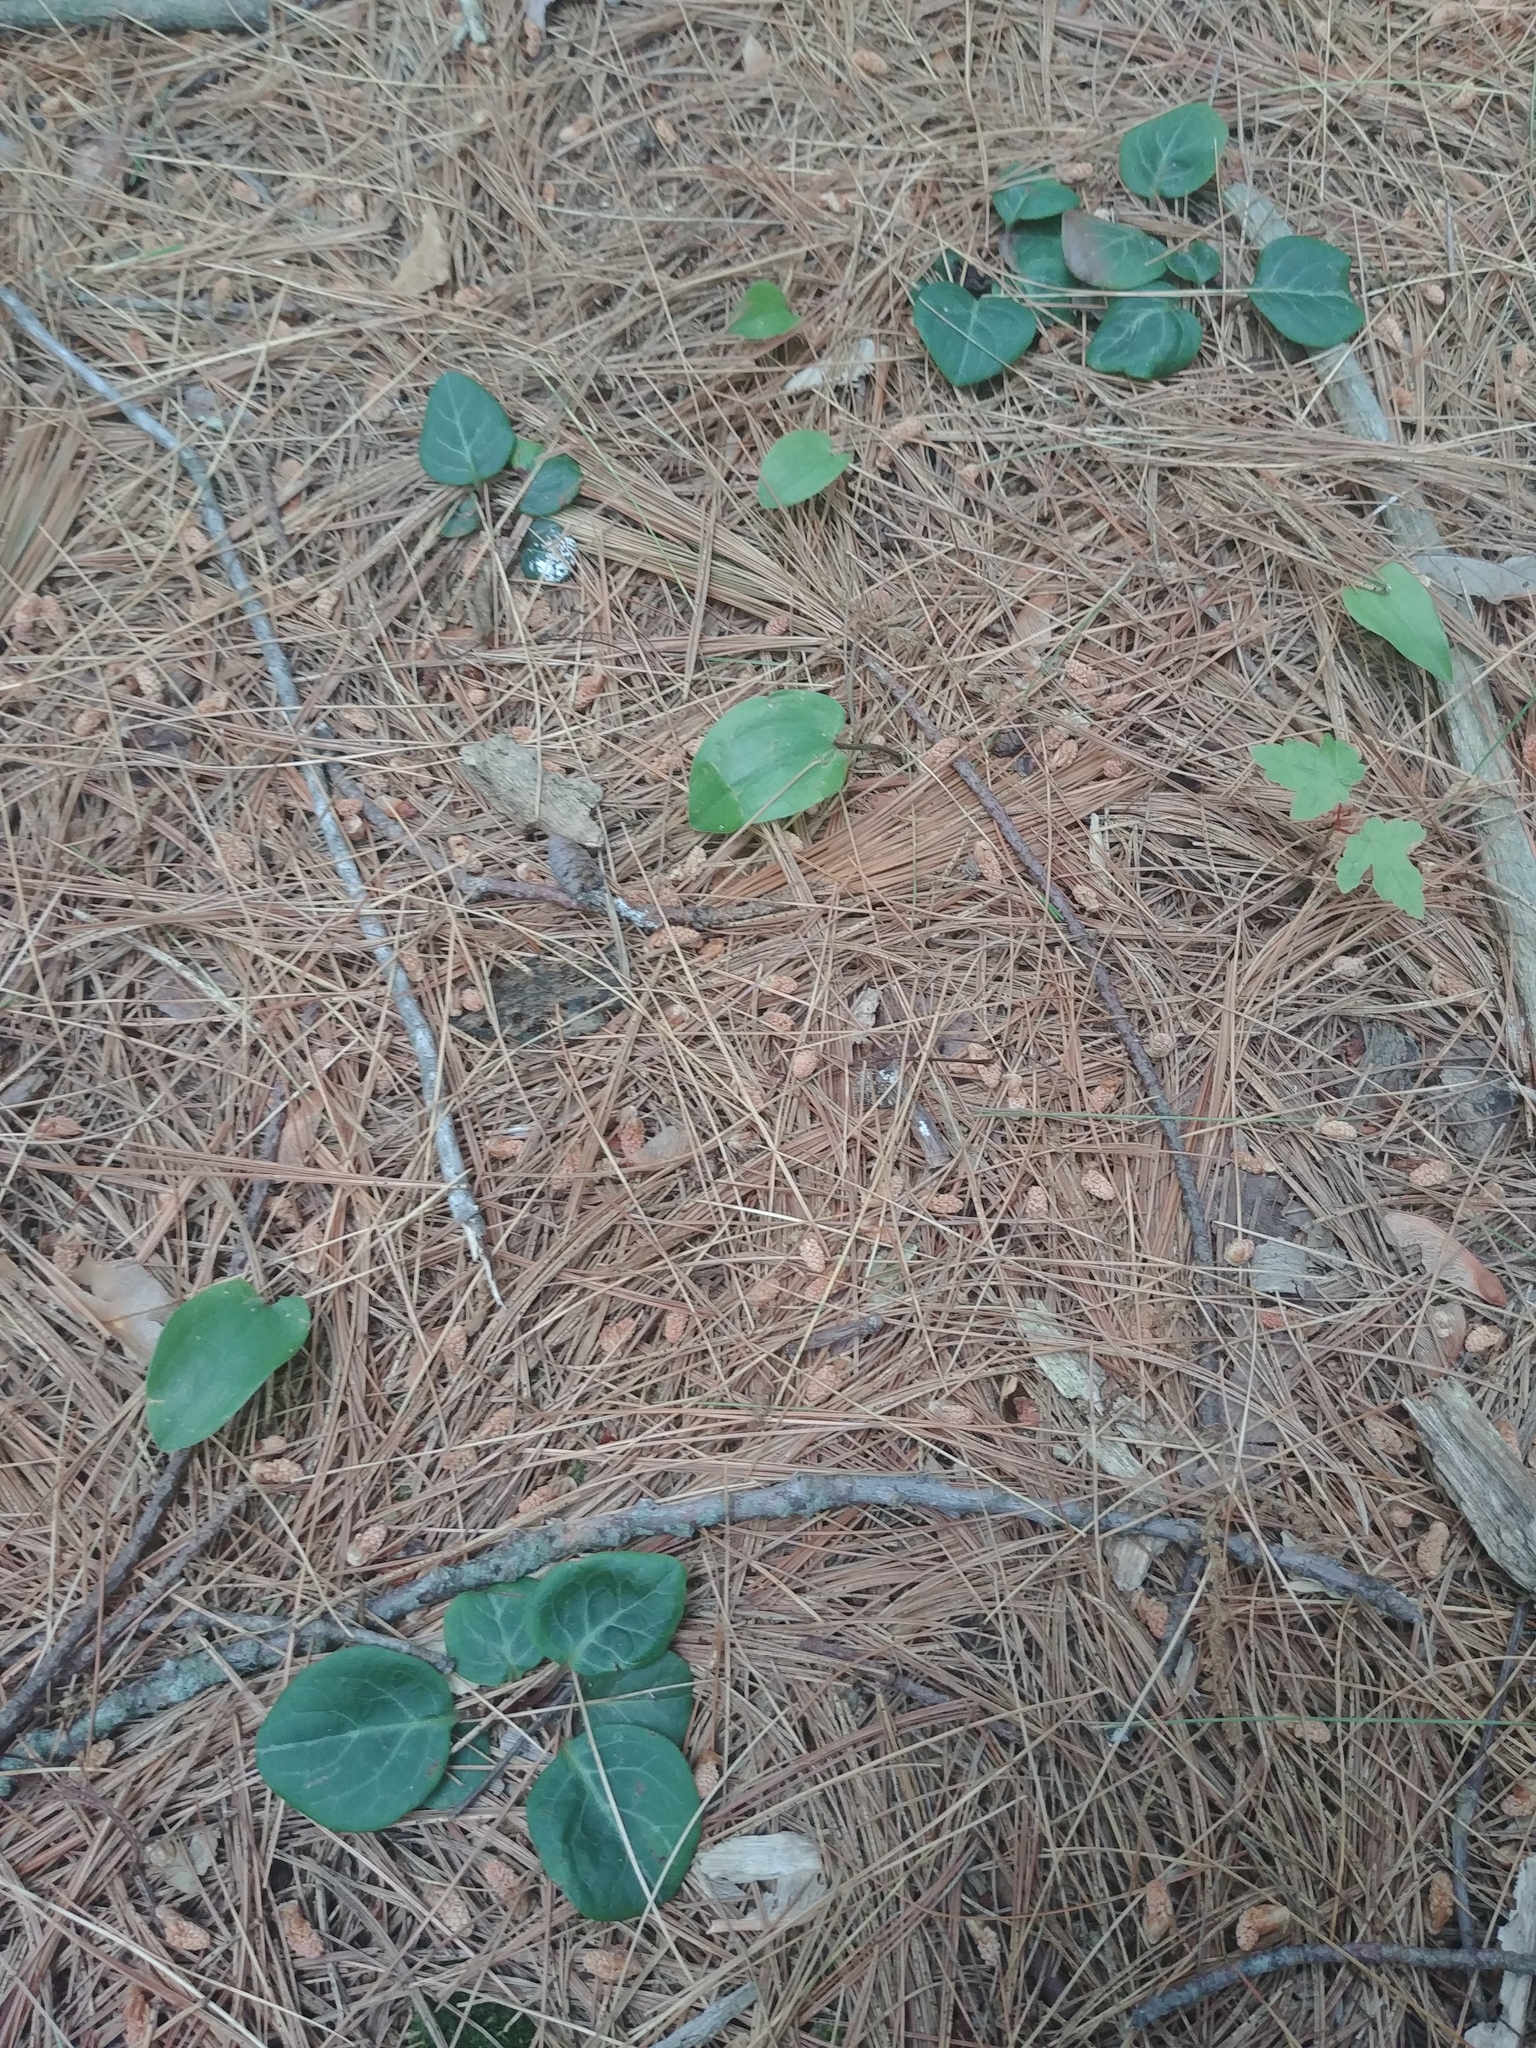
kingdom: Plantae
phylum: Tracheophyta
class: Magnoliopsida
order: Ericales
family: Ericaceae
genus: Pyrola
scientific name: Pyrola americana
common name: American wintergreen
